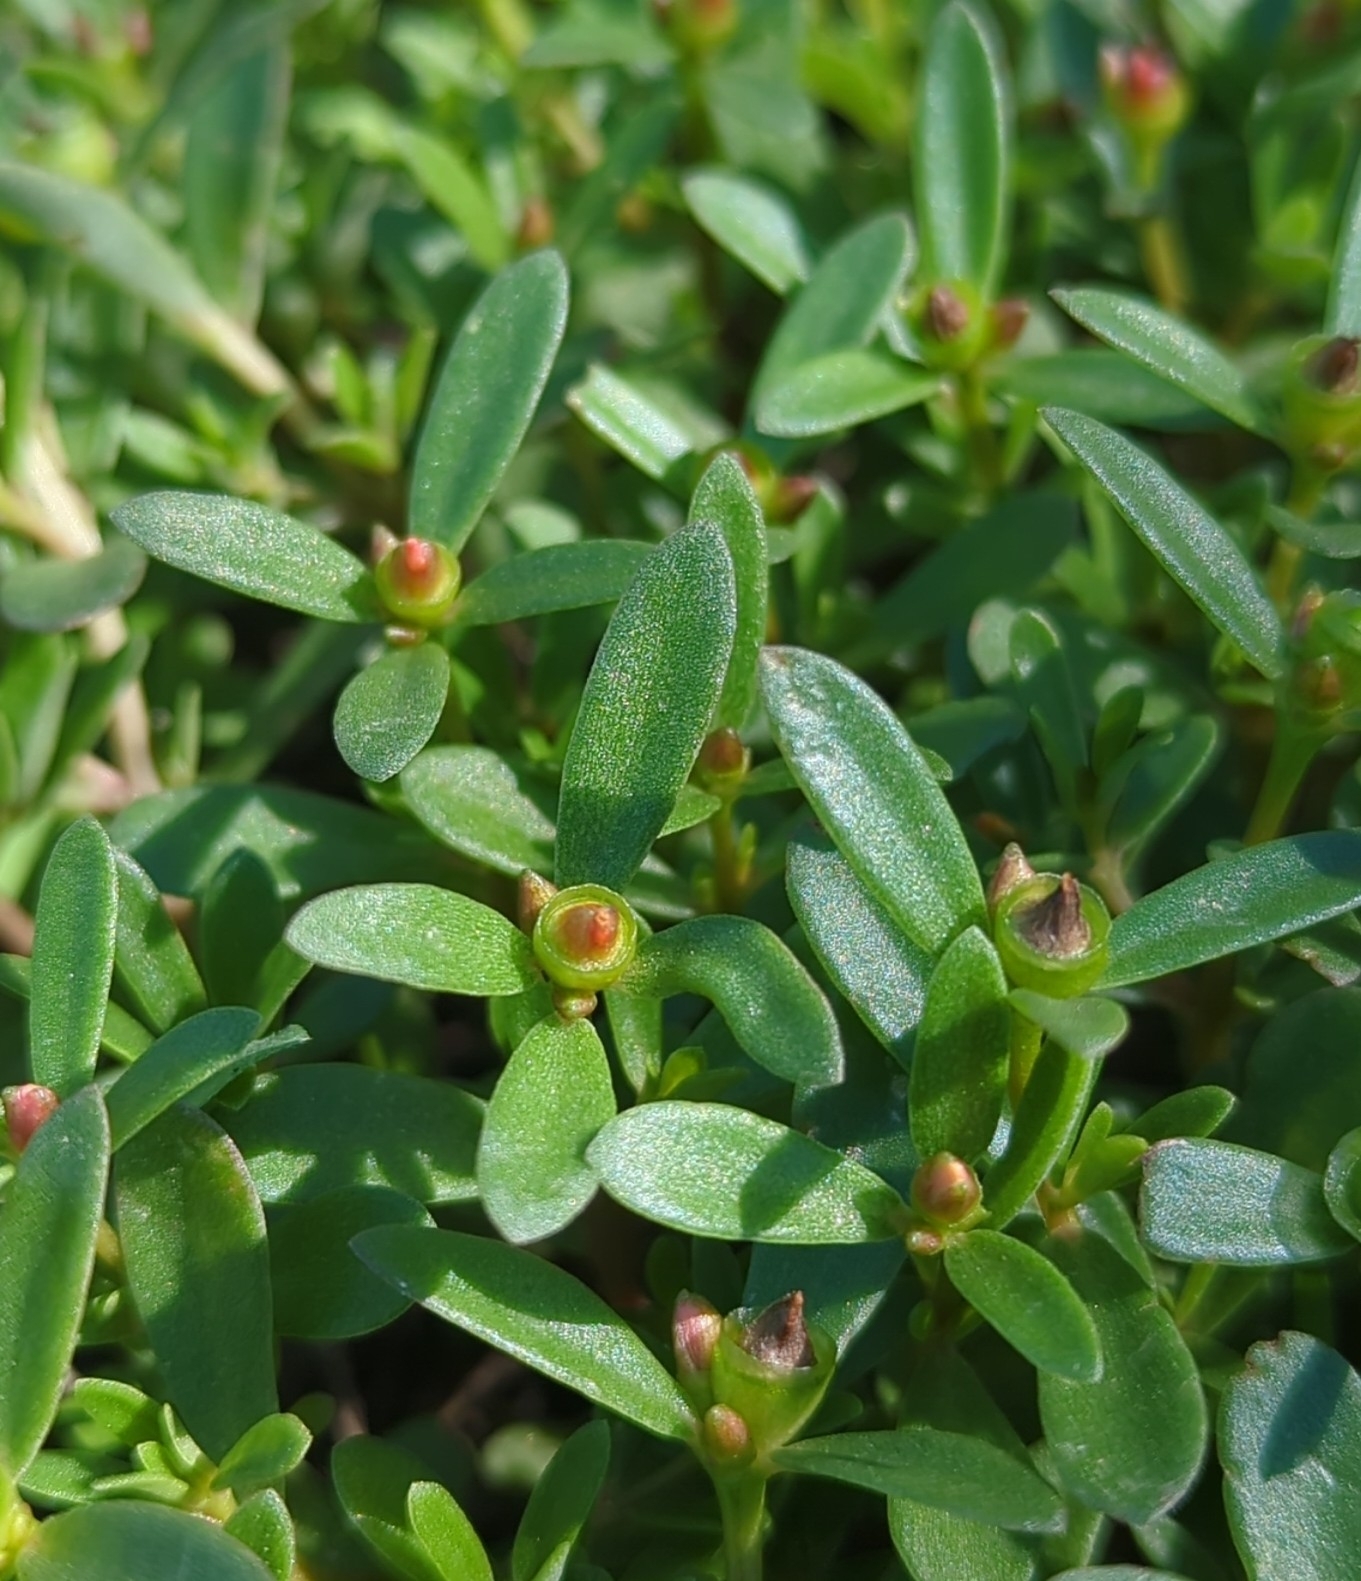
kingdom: Plantae
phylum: Tracheophyta
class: Magnoliopsida
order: Caryophyllales
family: Portulacaceae
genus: Portulaca
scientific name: Portulaca umbraticola
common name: Wingpod purslane
